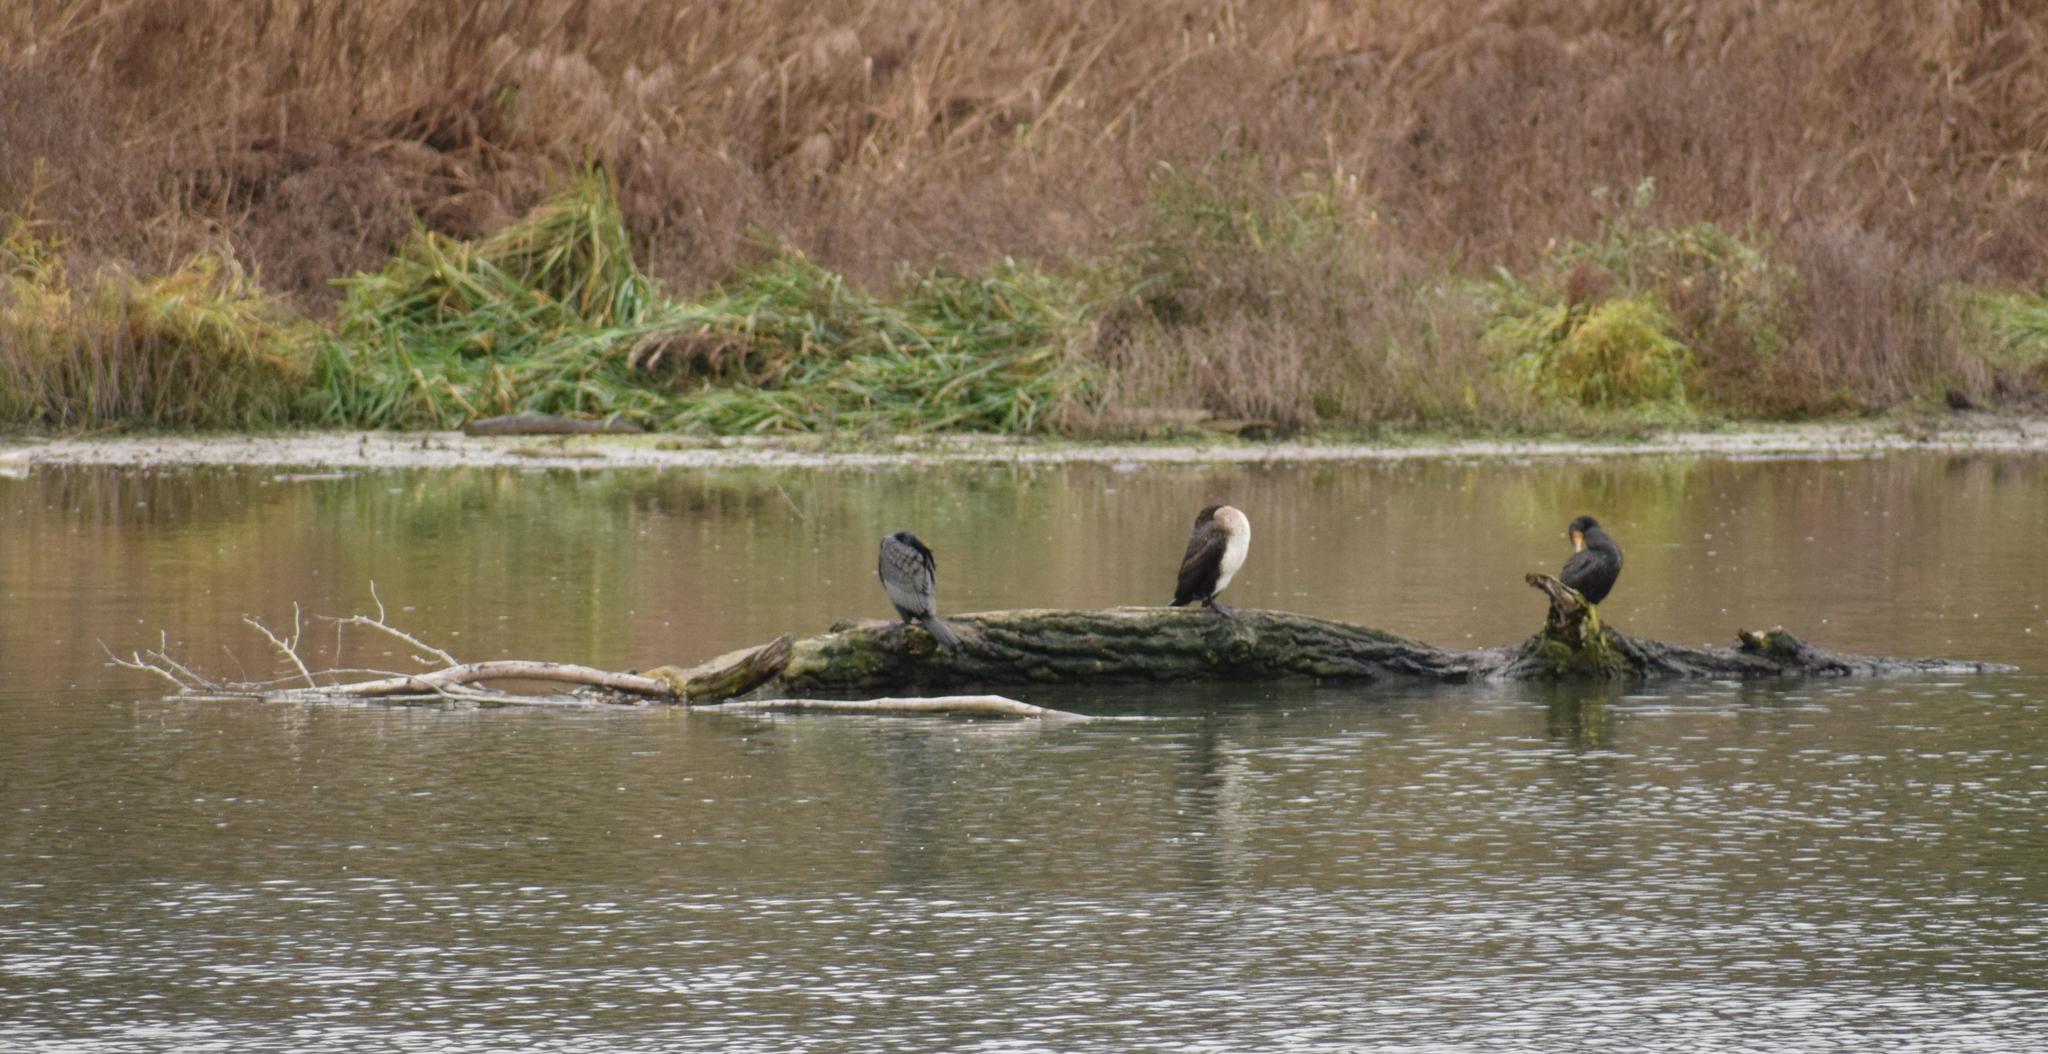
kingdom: Animalia
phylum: Chordata
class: Aves
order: Suliformes
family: Phalacrocoracidae
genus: Phalacrocorax
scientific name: Phalacrocorax carbo
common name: Great cormorant
